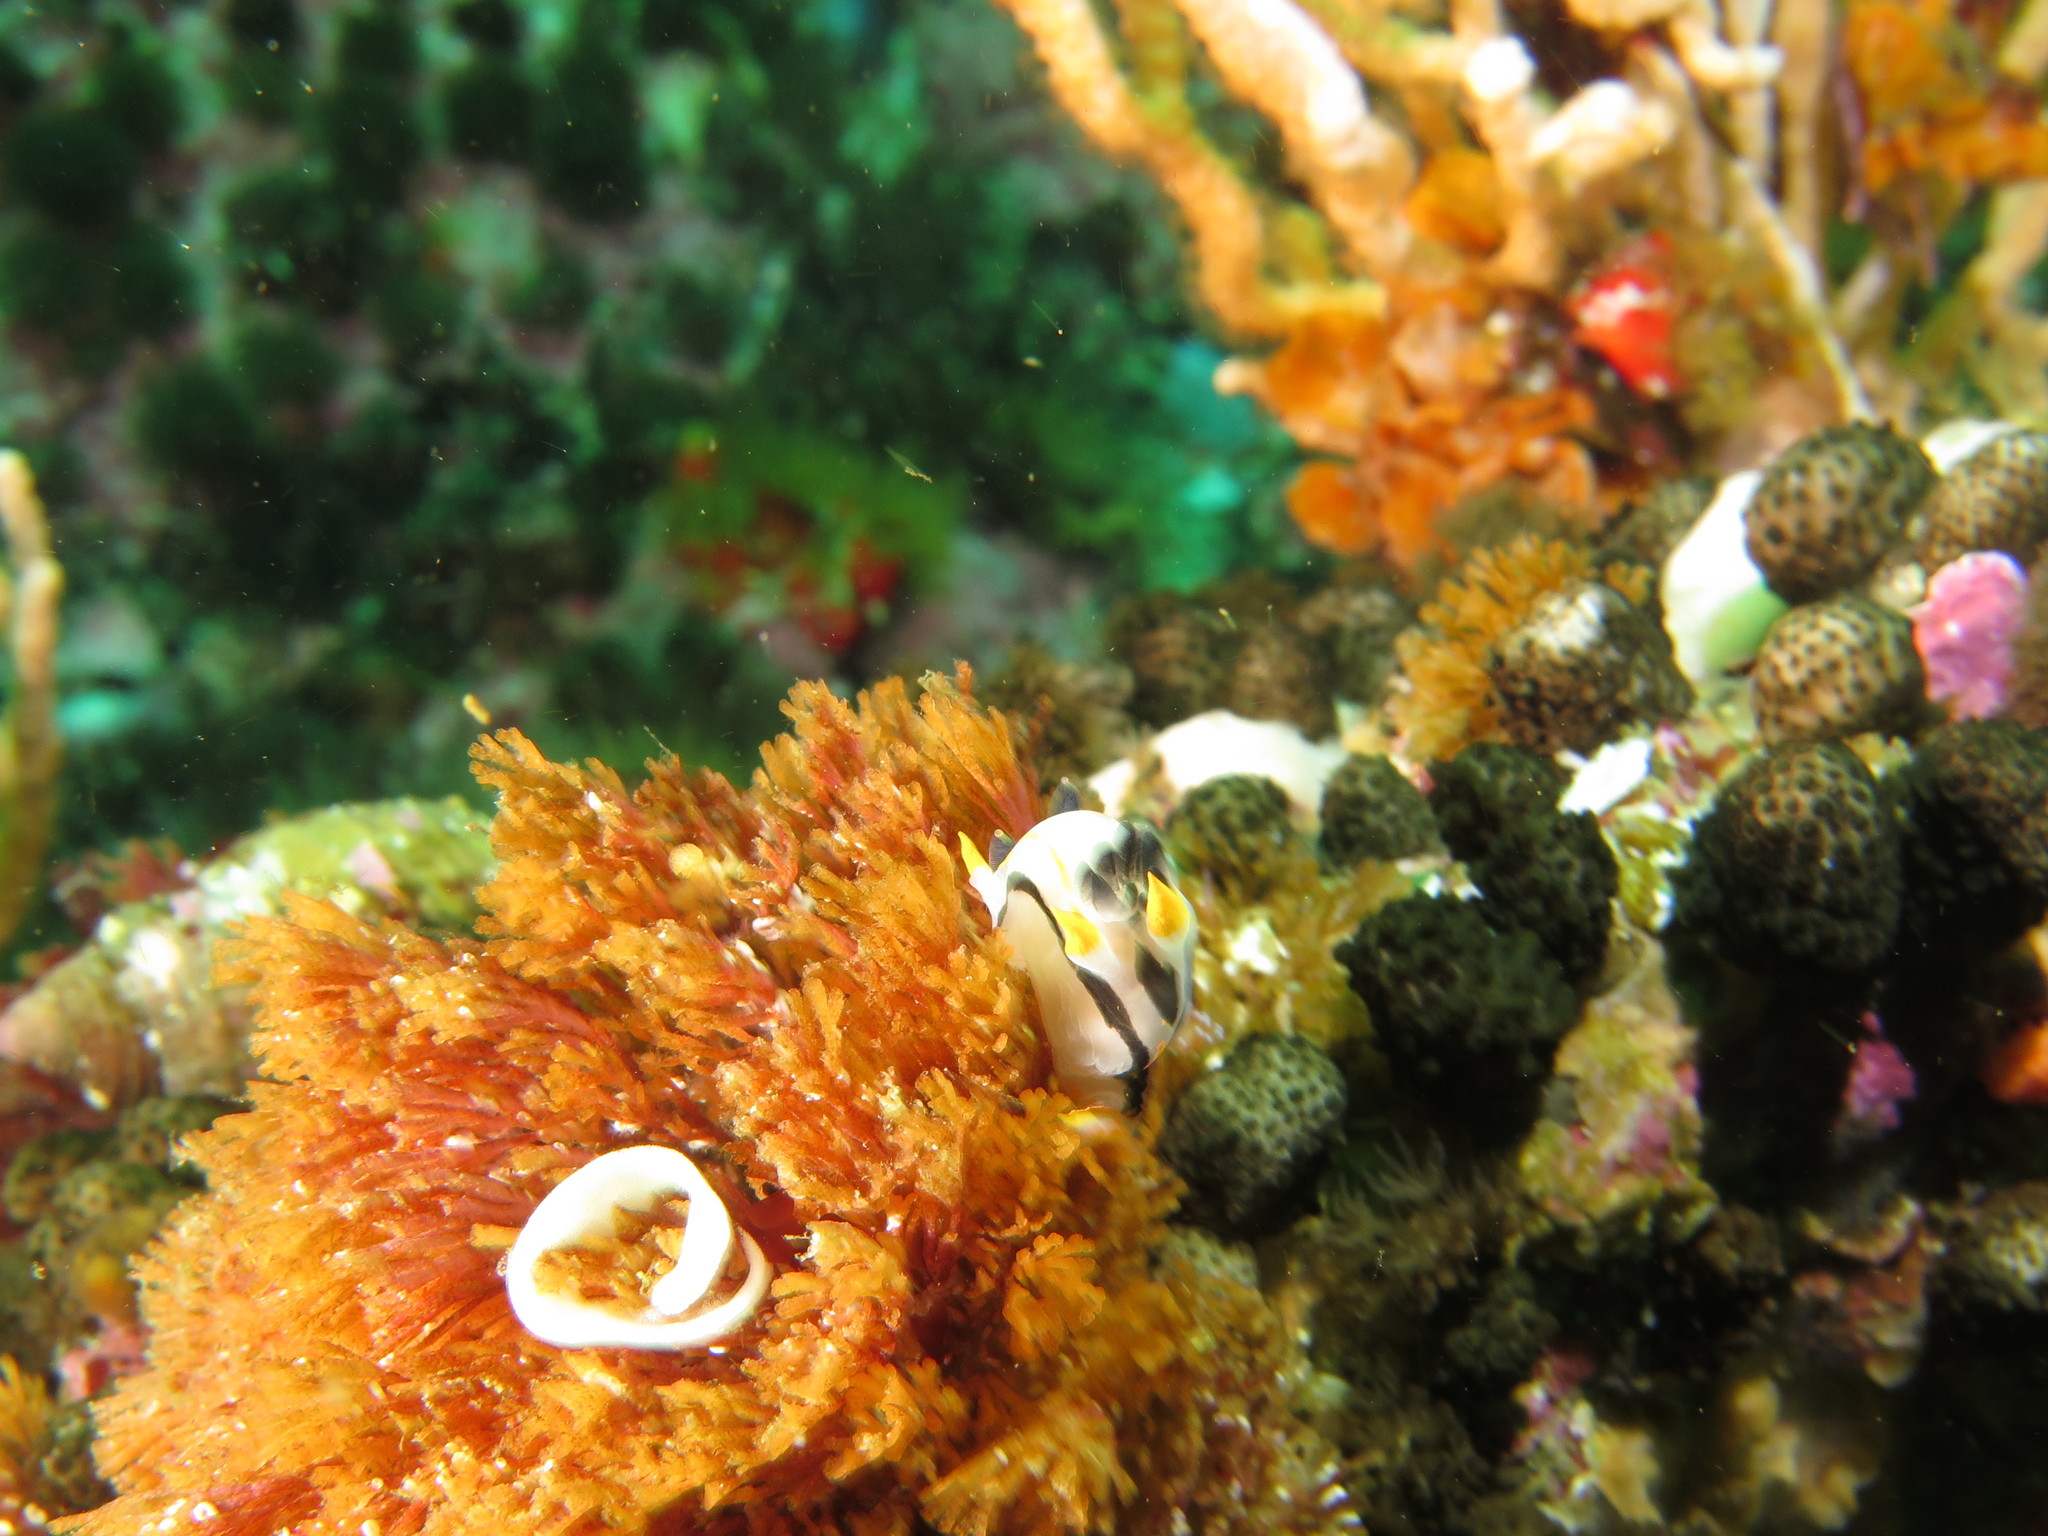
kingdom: Animalia
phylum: Mollusca
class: Gastropoda
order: Nudibranchia
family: Polyceridae
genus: Polycera
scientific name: Polycera capensis
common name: Crowned nudibranch
